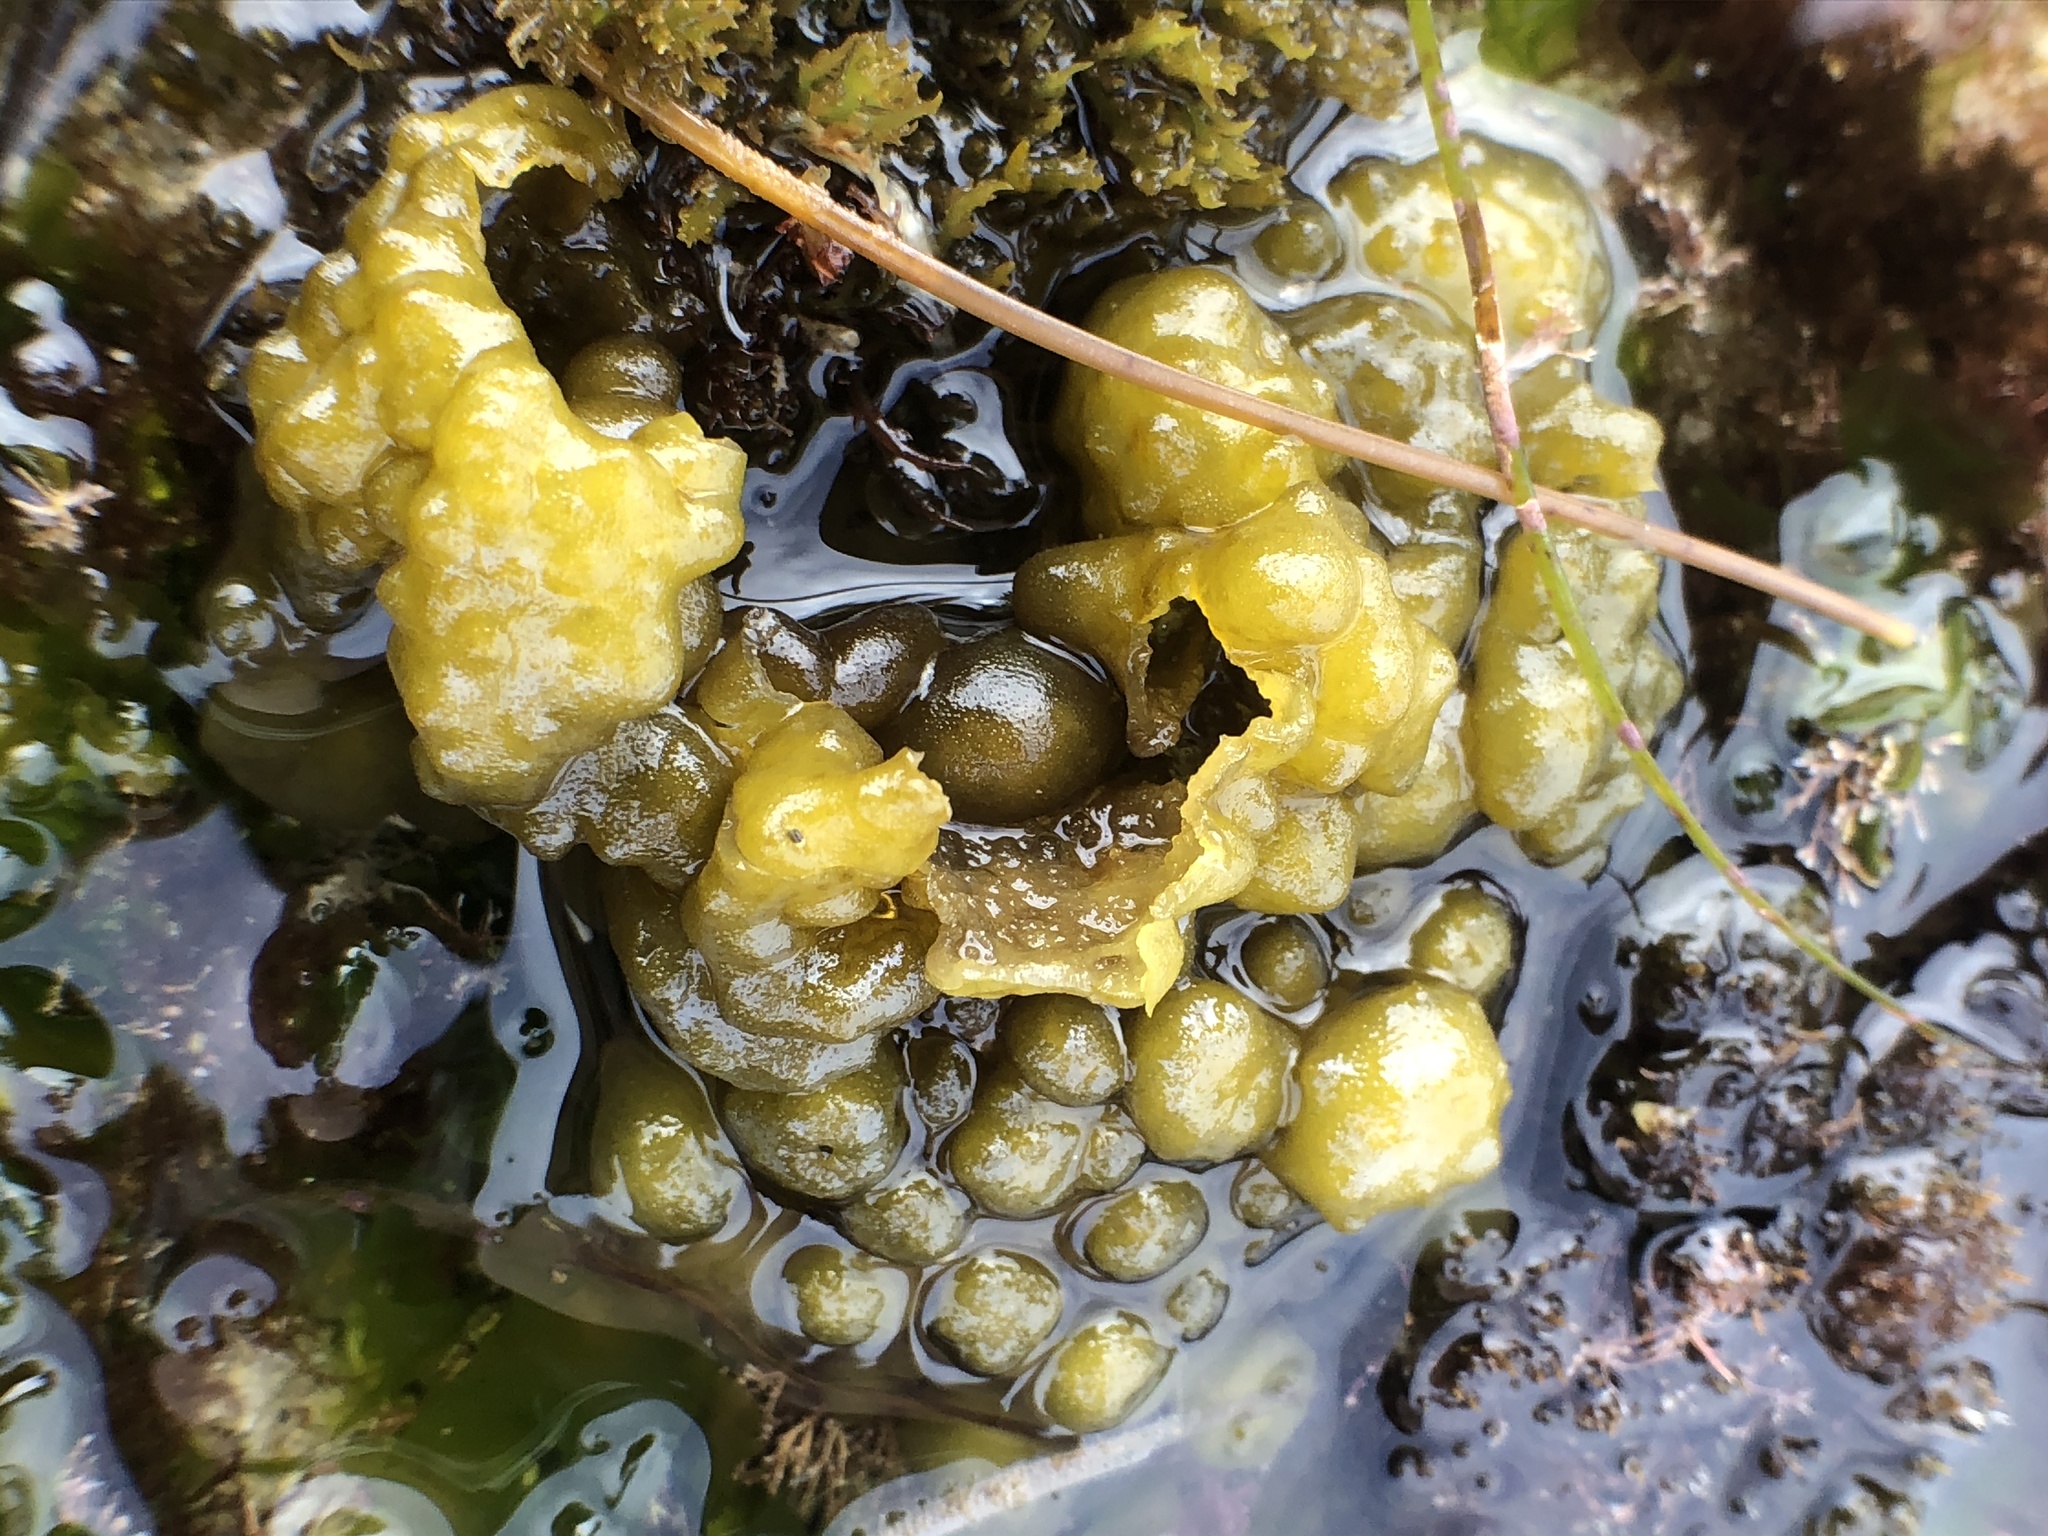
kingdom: Chromista
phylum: Ochrophyta
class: Phaeophyceae
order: Ectocarpales
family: Chordariaceae
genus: Leathesia
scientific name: Leathesia marina
